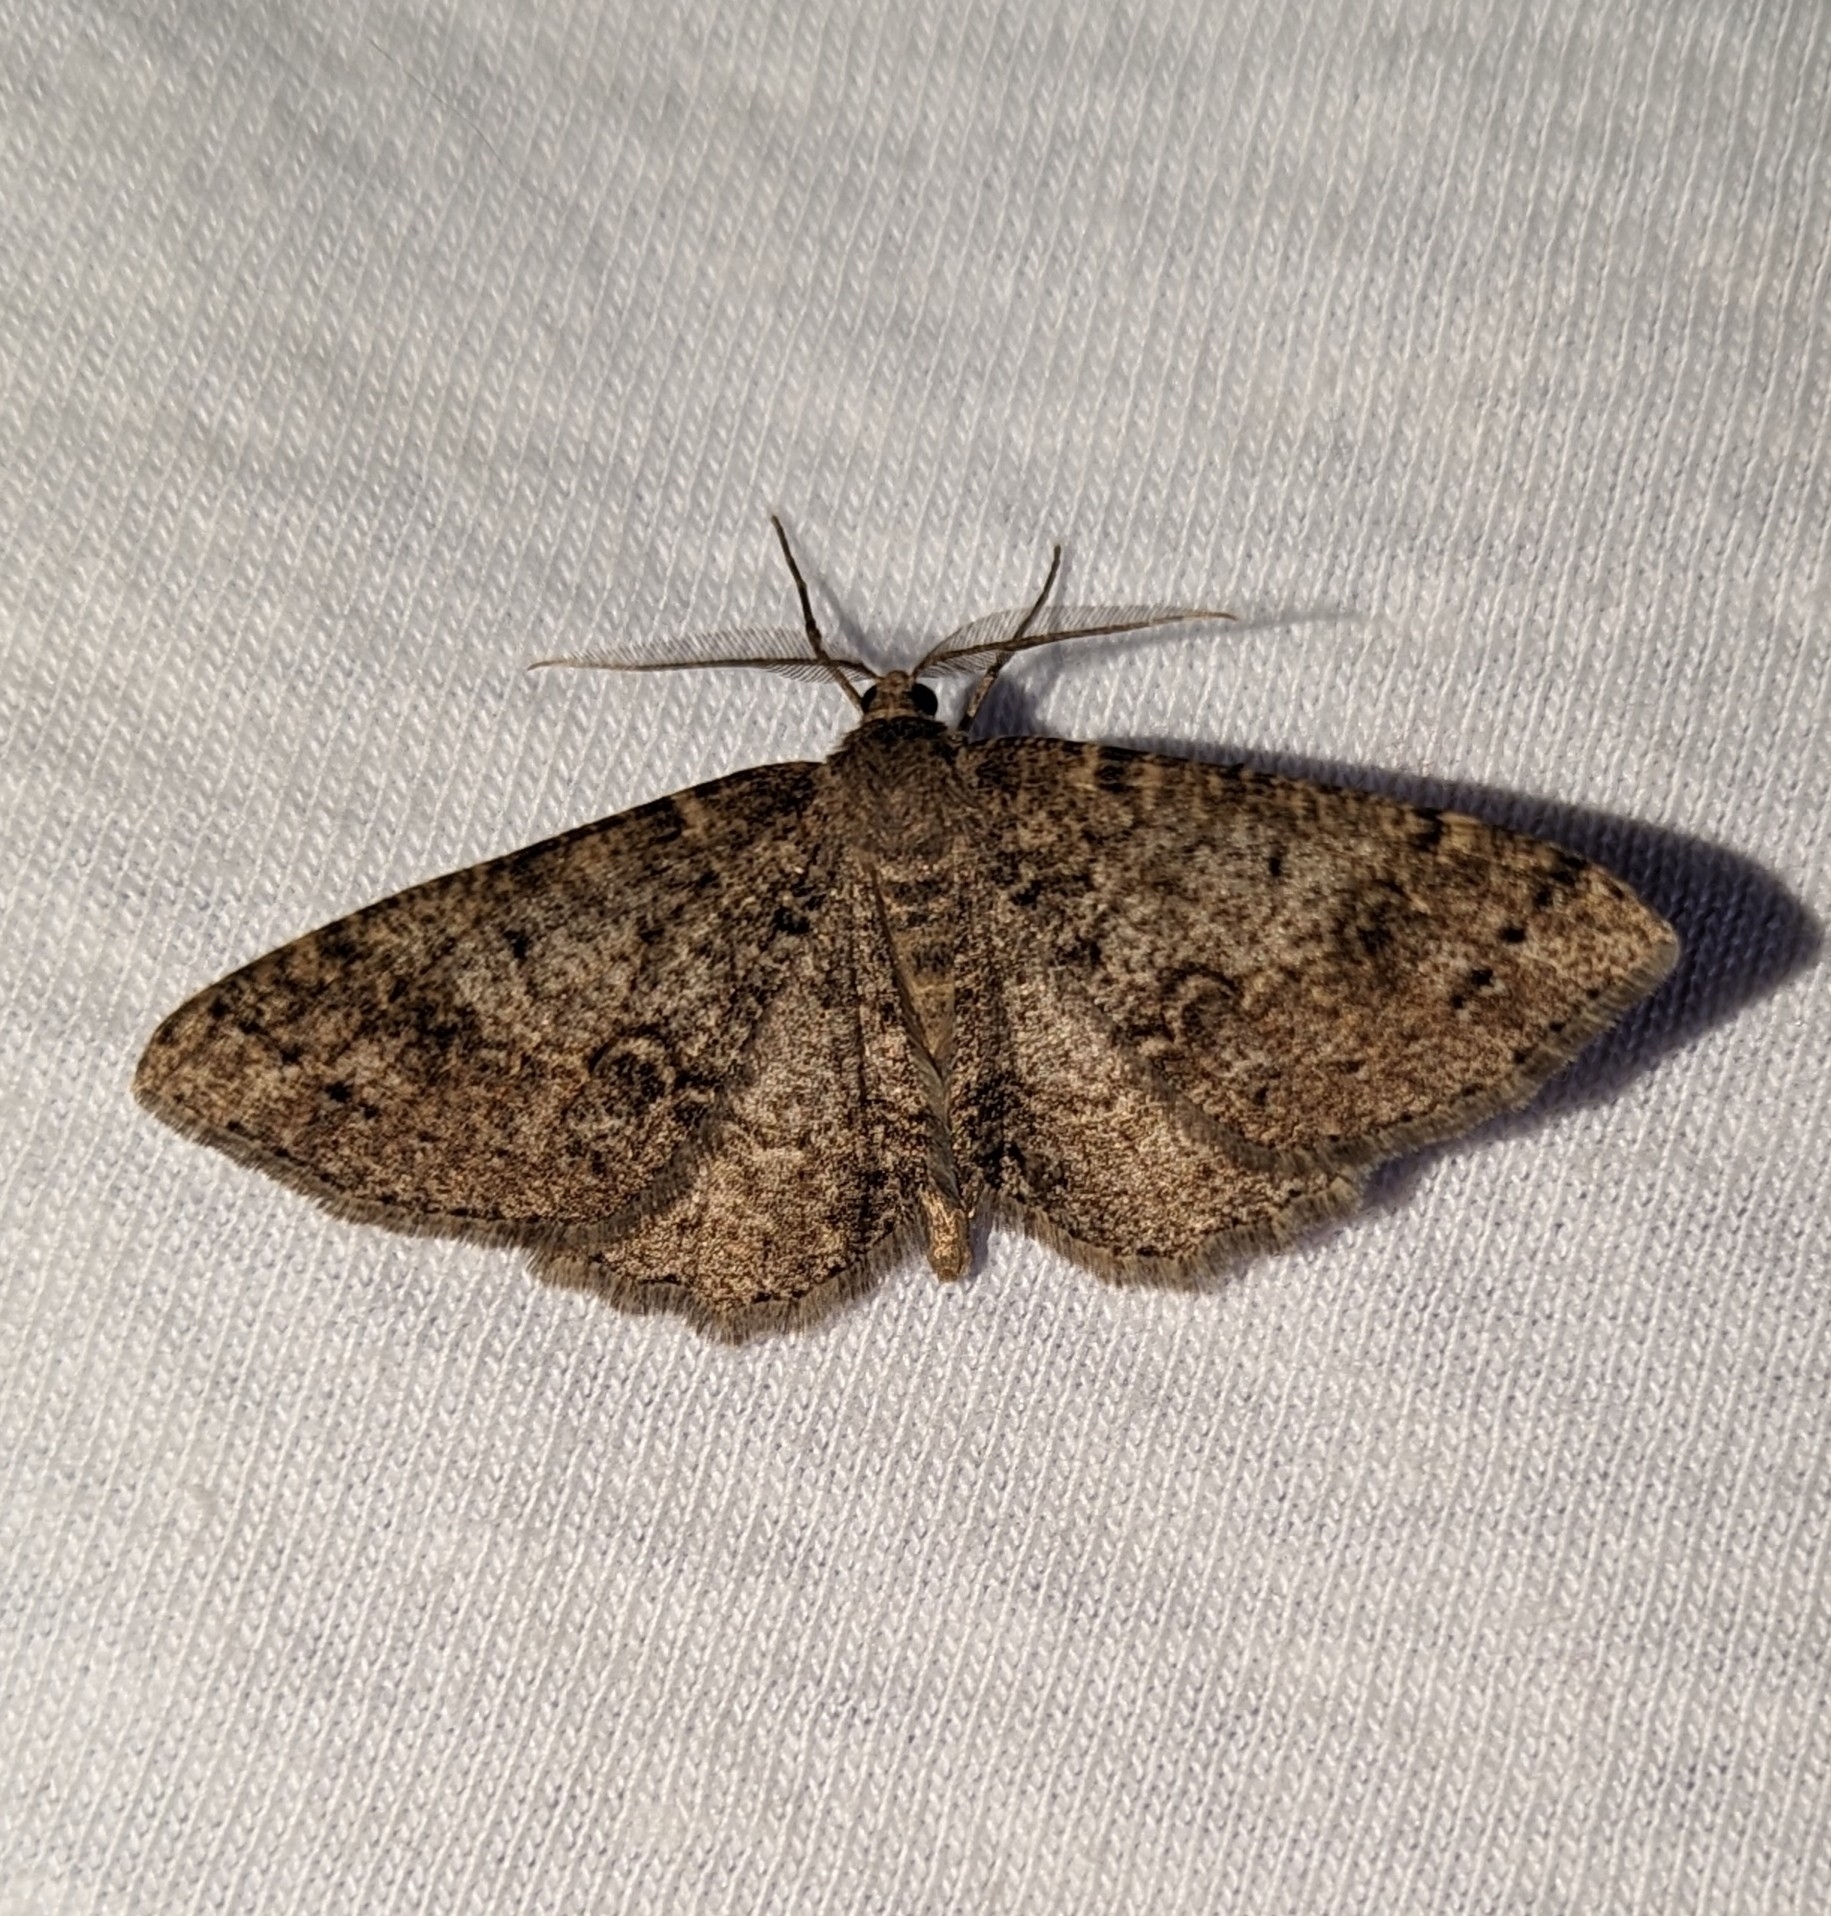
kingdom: Animalia
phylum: Arthropoda
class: Insecta
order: Lepidoptera
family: Geometridae
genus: Melanolophia
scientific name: Melanolophia imitata
